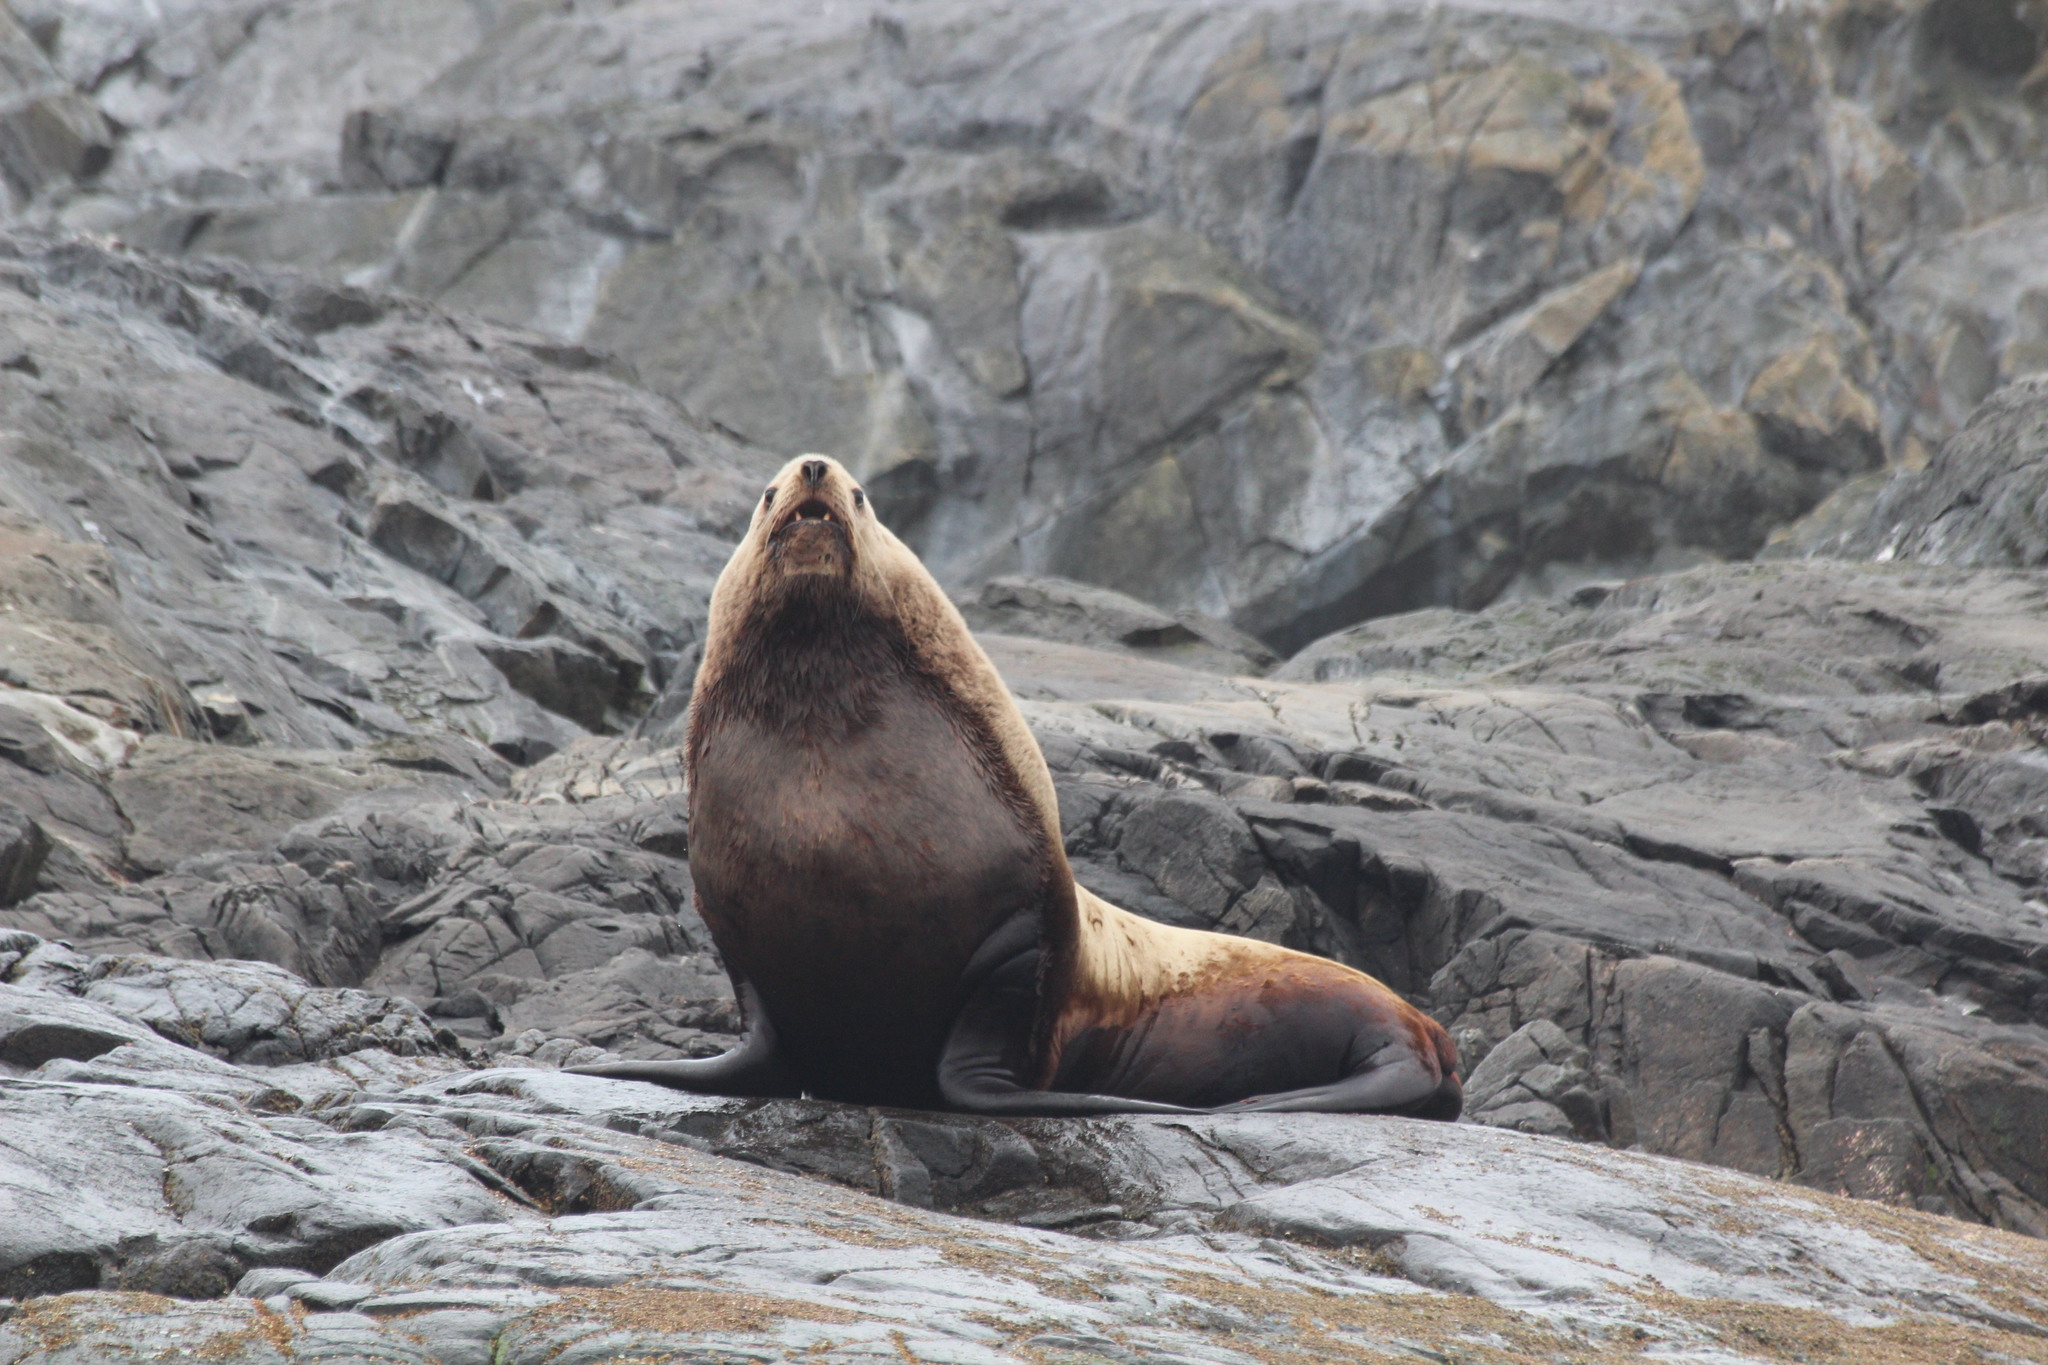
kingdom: Animalia
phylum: Chordata
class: Mammalia
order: Carnivora
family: Otariidae
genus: Eumetopias
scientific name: Eumetopias jubatus
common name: Steller sea lion
